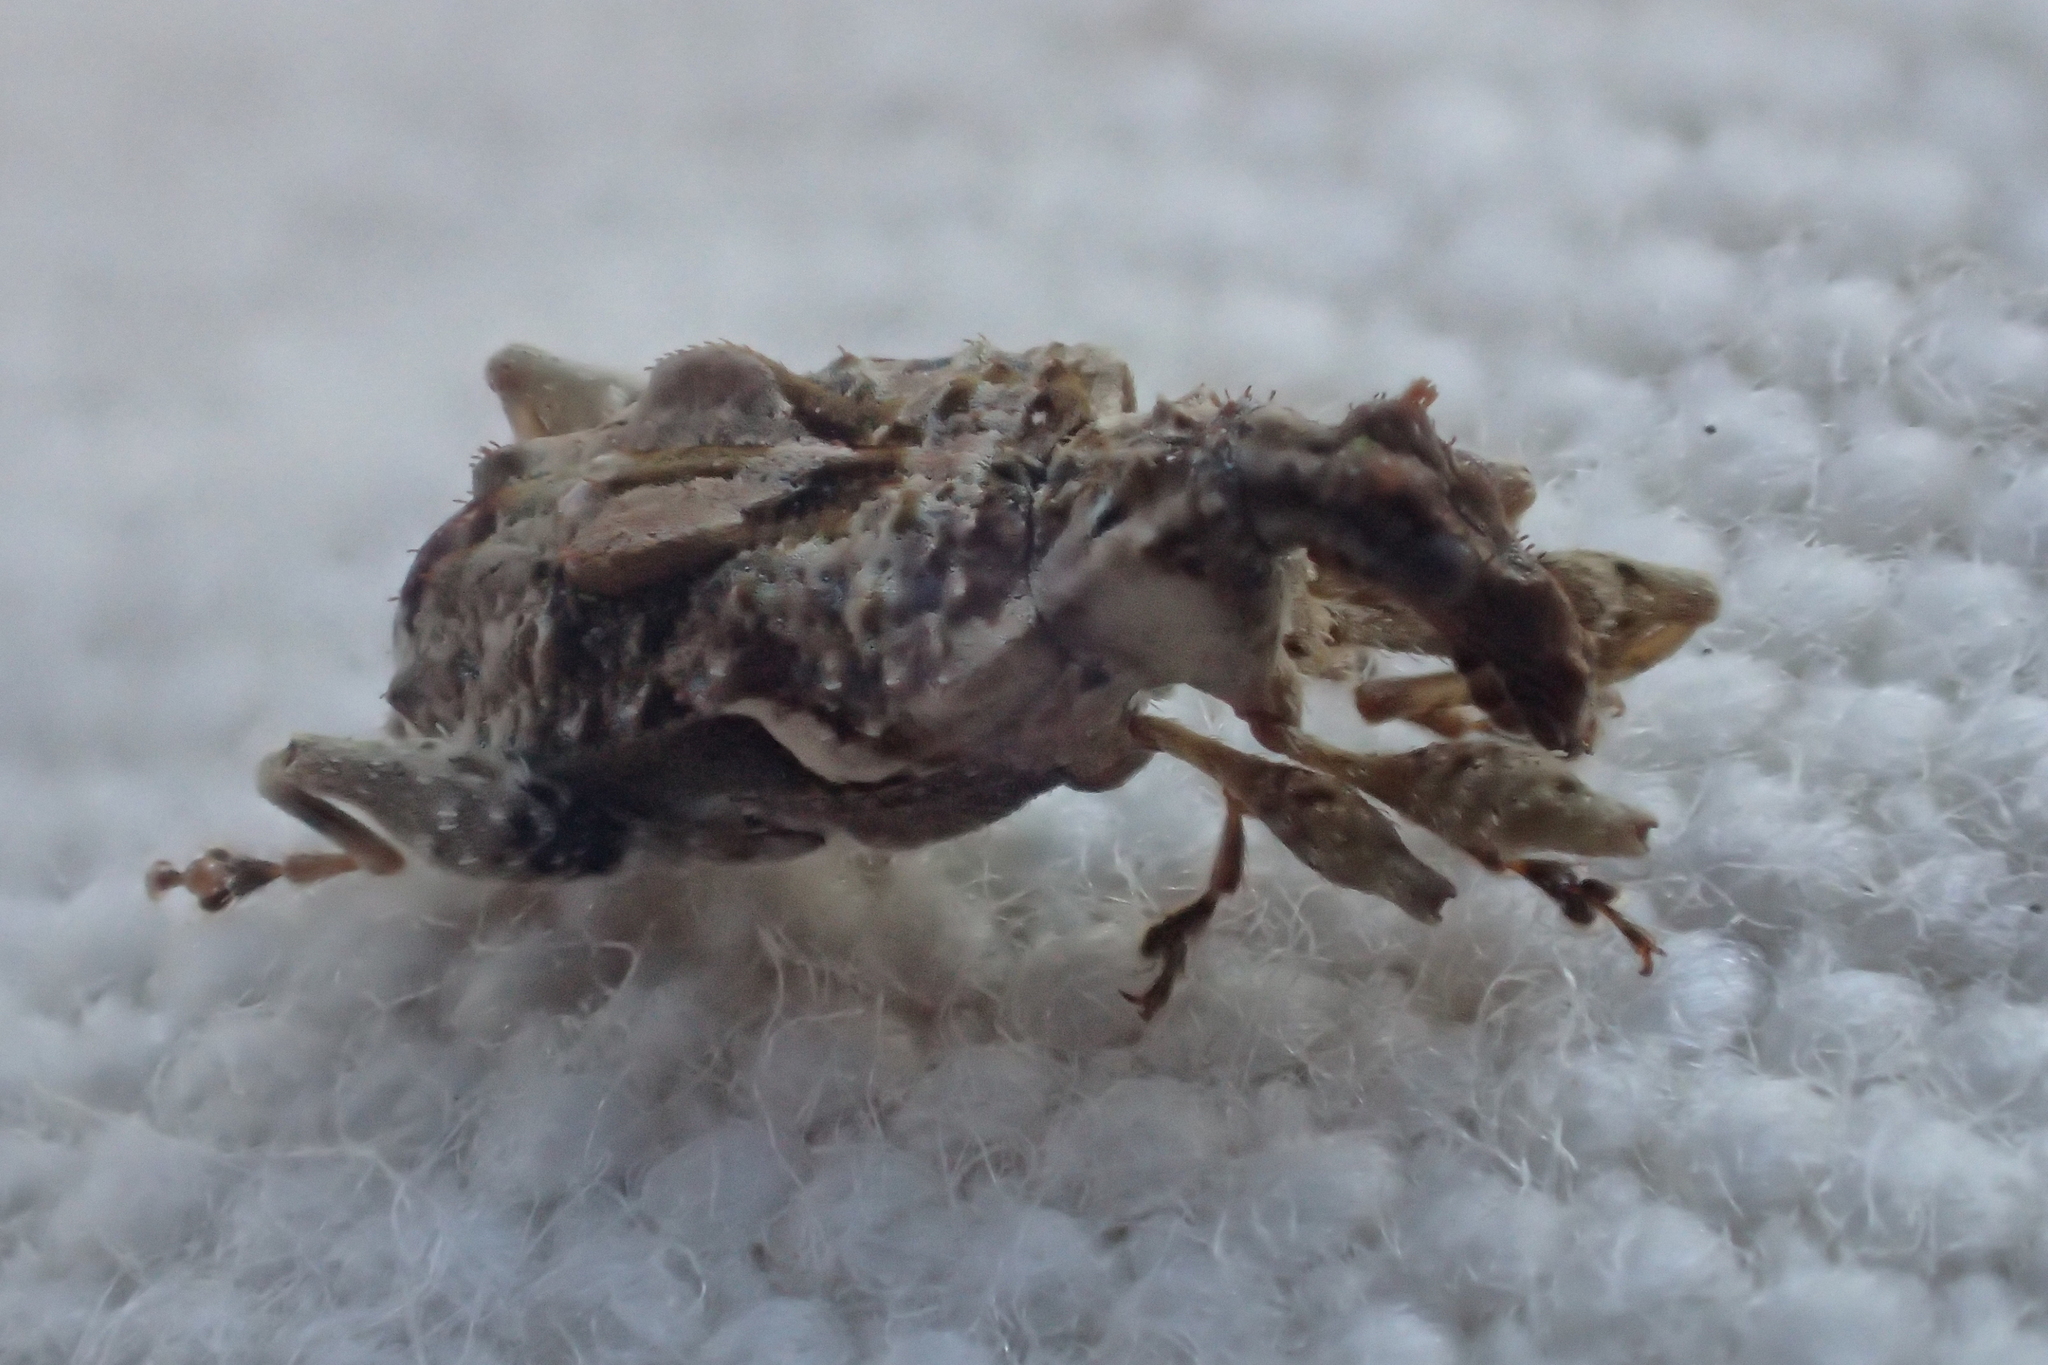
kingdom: Animalia
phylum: Arthropoda
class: Insecta
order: Coleoptera
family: Curculionidae
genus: Stephanorhynchus
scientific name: Stephanorhynchus curvipes
